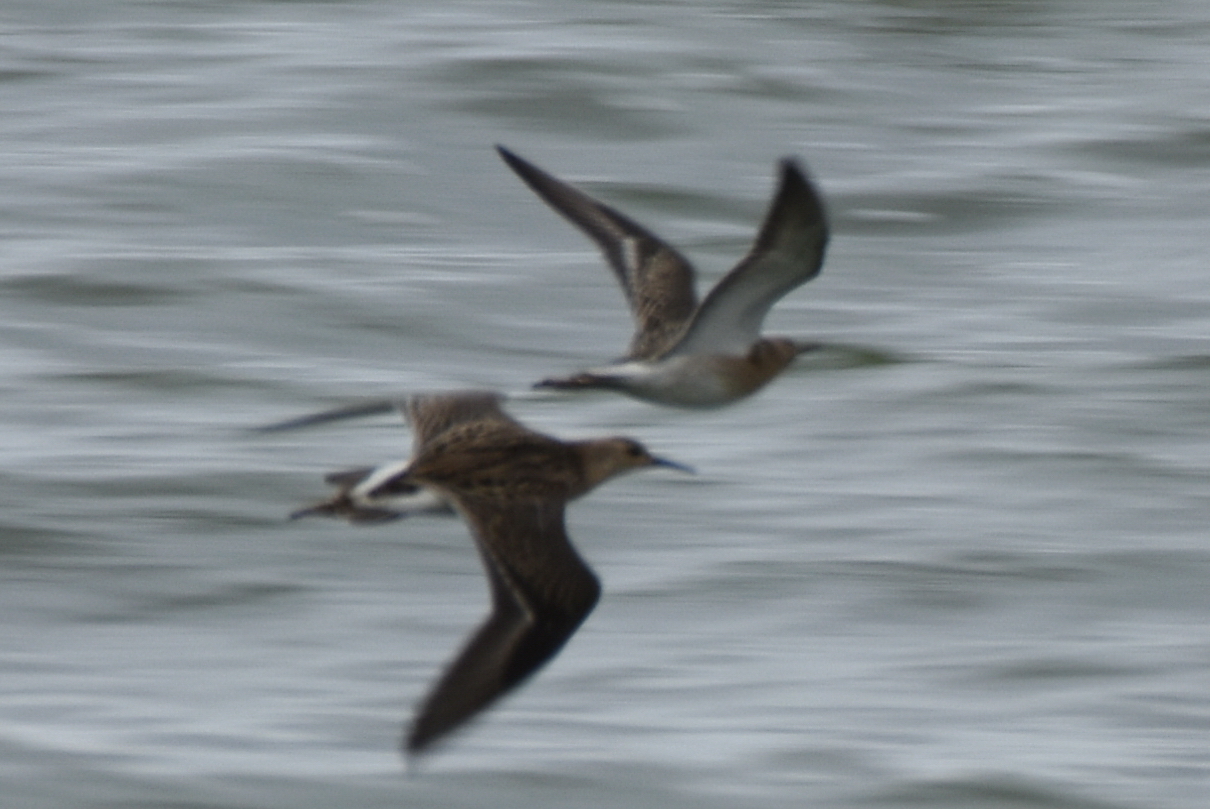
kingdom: Animalia
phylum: Chordata
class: Aves
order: Charadriiformes
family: Scolopacidae
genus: Calidris
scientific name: Calidris pugnax
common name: Ruff
